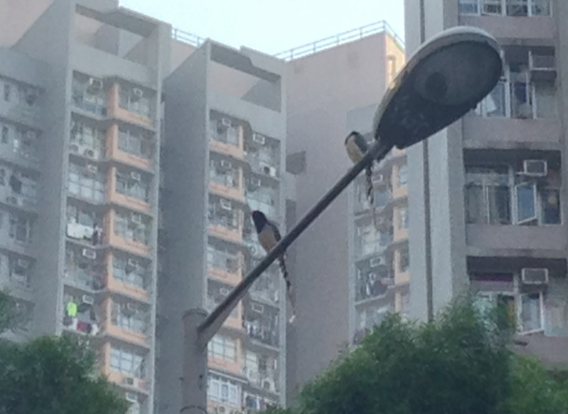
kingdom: Animalia
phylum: Chordata
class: Aves
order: Passeriformes
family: Corvidae
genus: Urocissa
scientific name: Urocissa erythroryncha
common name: Red-billed blue magpie
